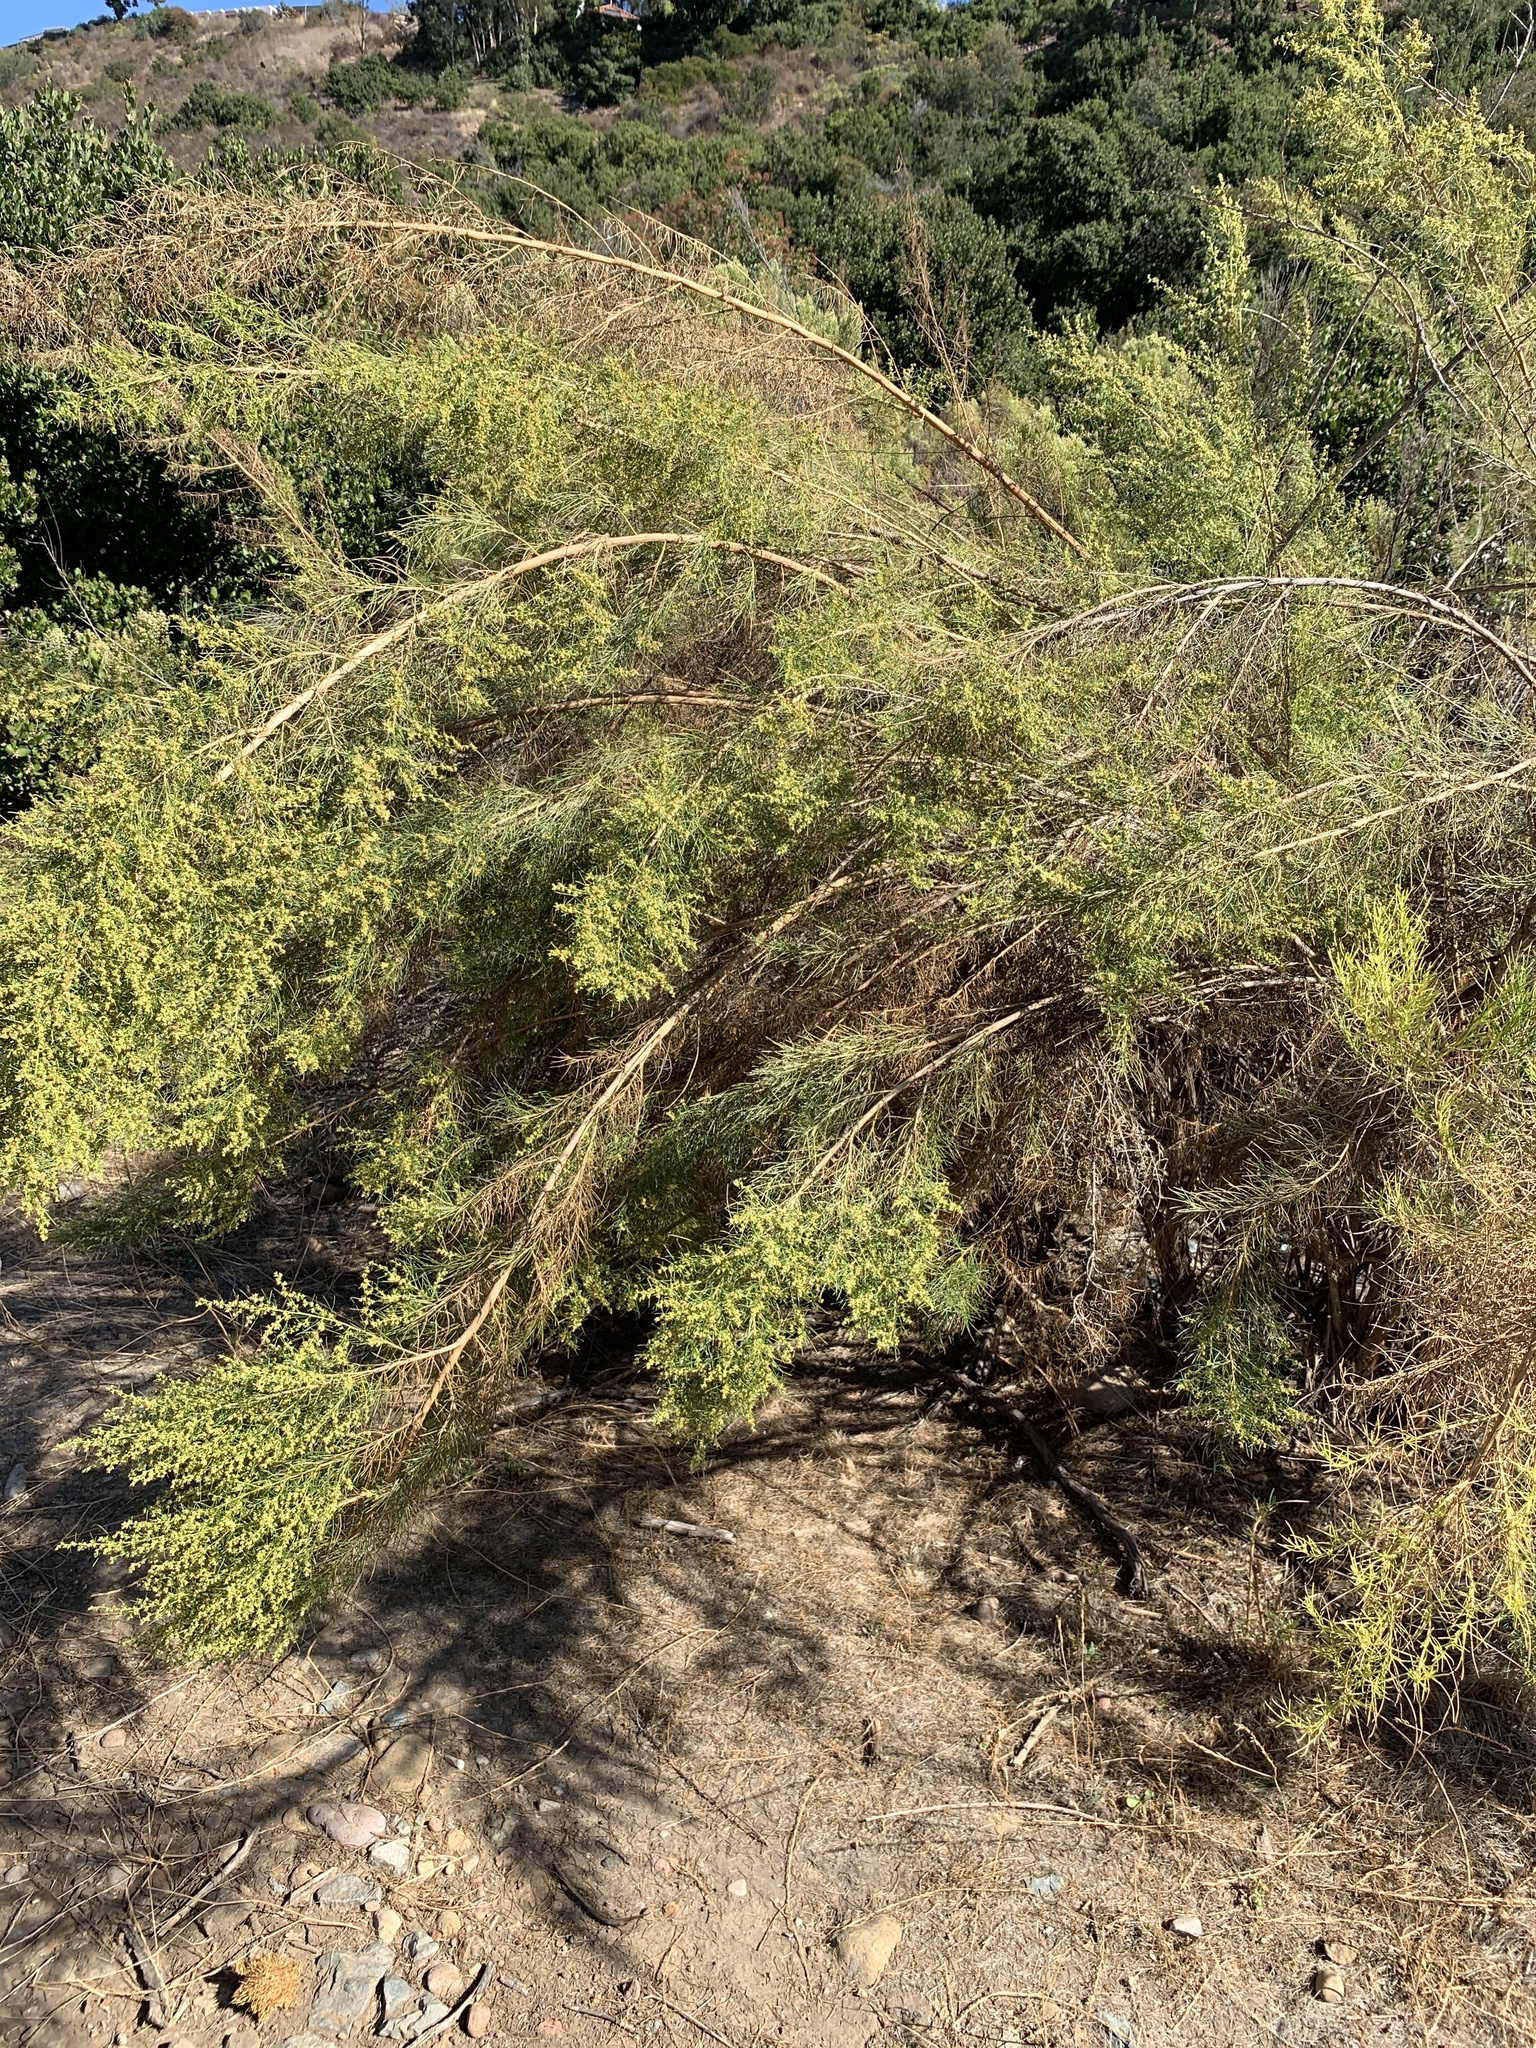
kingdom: Plantae
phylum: Tracheophyta
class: Magnoliopsida
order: Asterales
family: Asteraceae
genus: Ambrosia
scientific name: Ambrosia monogyra
